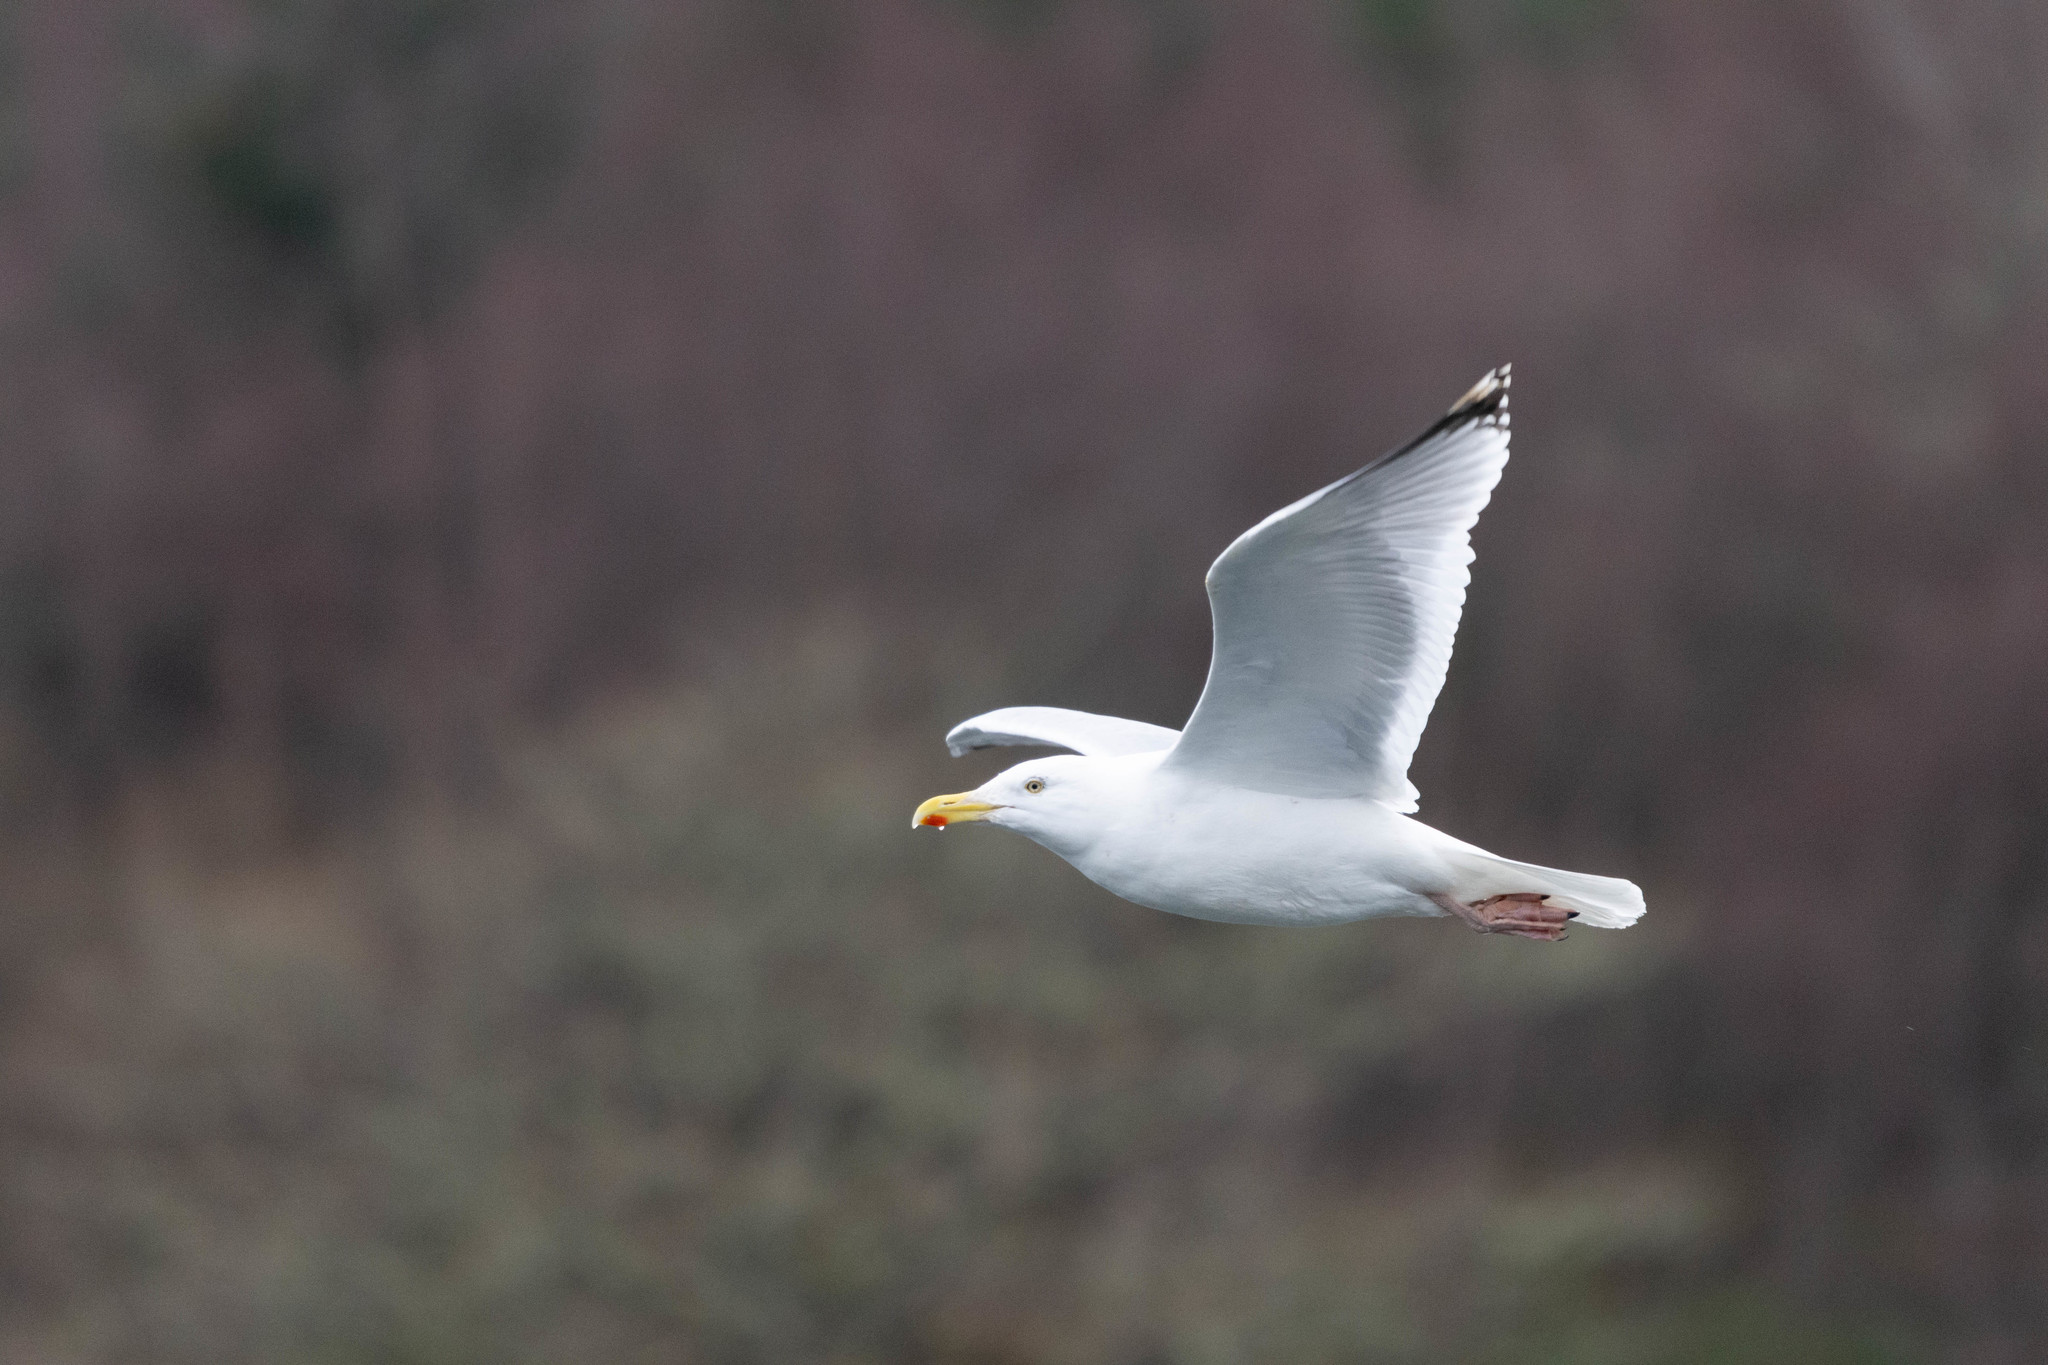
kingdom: Animalia
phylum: Chordata
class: Aves
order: Charadriiformes
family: Laridae
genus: Larus
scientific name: Larus argentatus
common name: Herring gull
